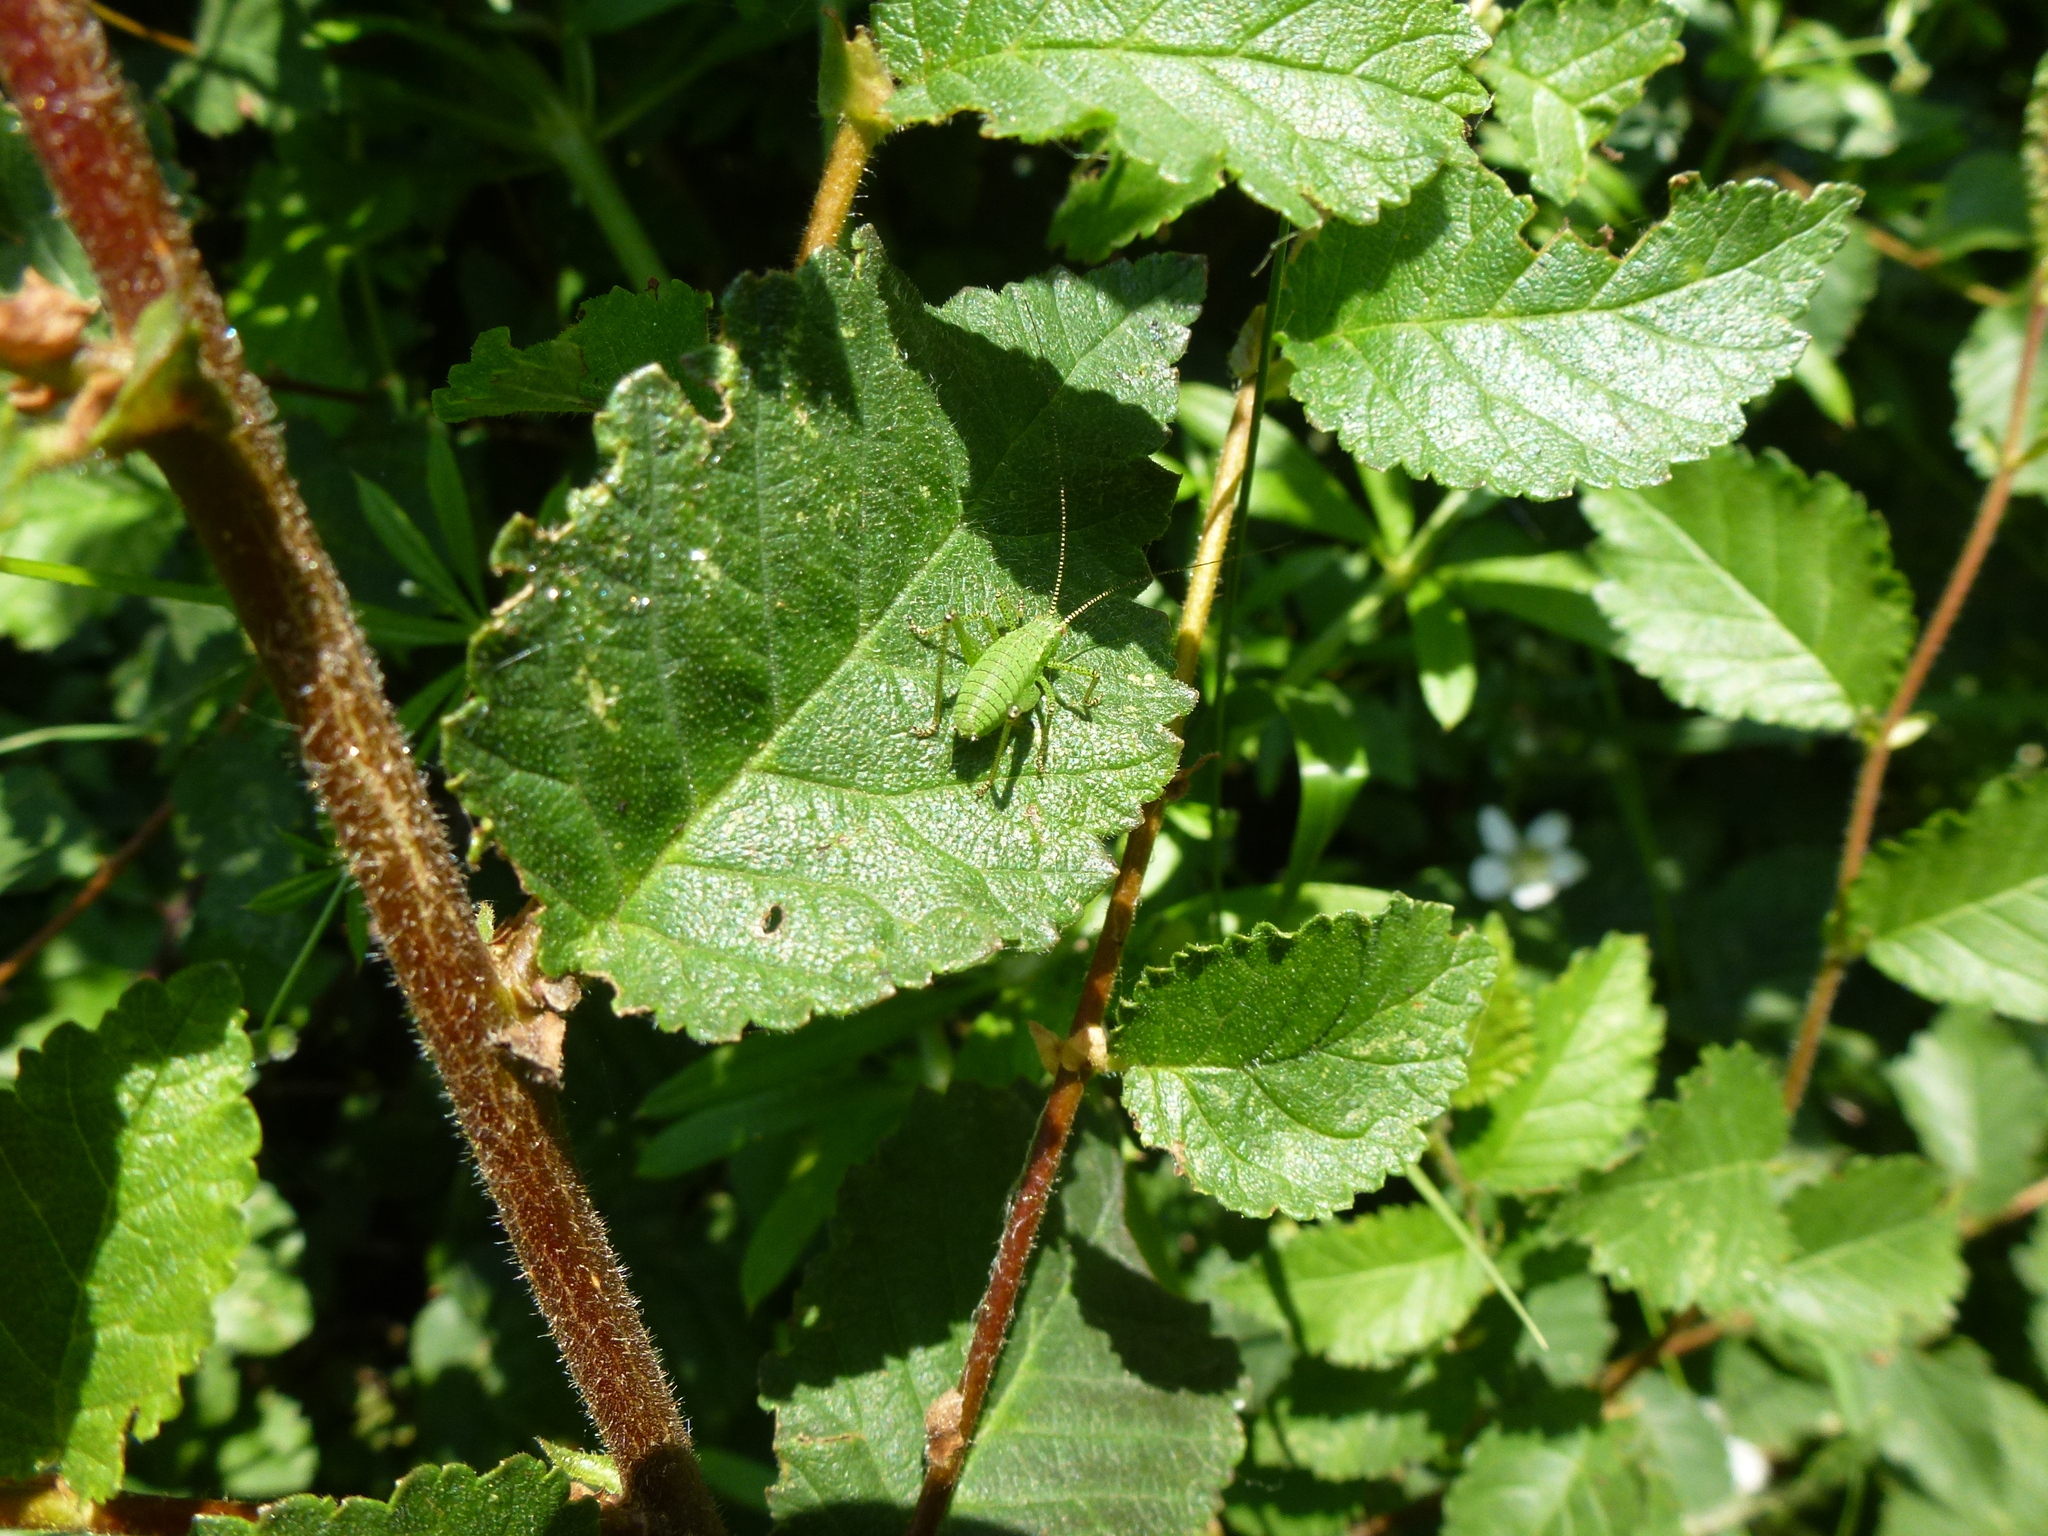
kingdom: Animalia
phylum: Arthropoda
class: Insecta
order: Orthoptera
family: Tettigoniidae
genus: Leptophyes
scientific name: Leptophyes punctatissima
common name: Speckled bush-cricket
